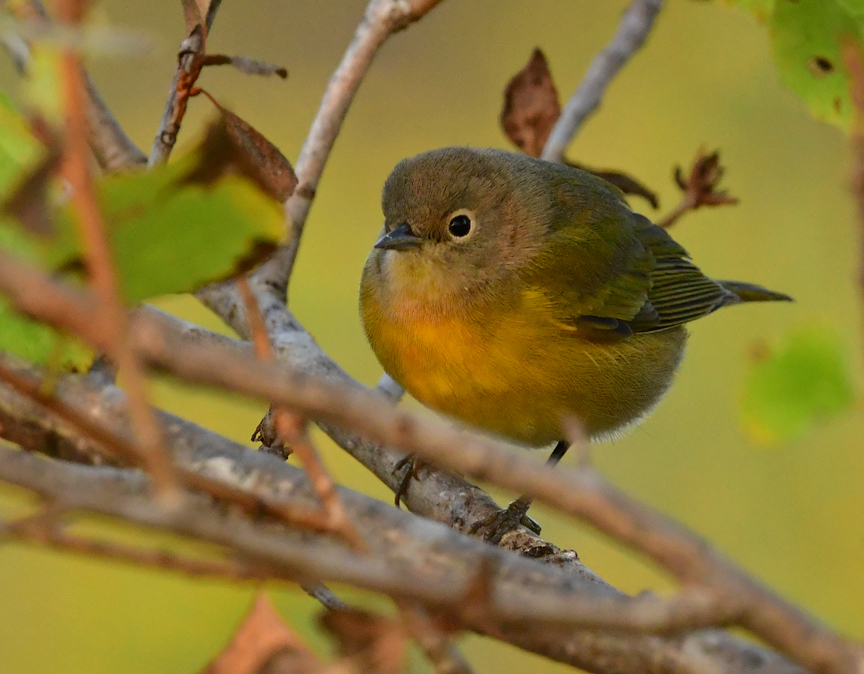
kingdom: Animalia
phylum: Chordata
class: Aves
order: Passeriformes
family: Parulidae
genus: Leiothlypis
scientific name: Leiothlypis ruficapilla
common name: Nashville warbler
